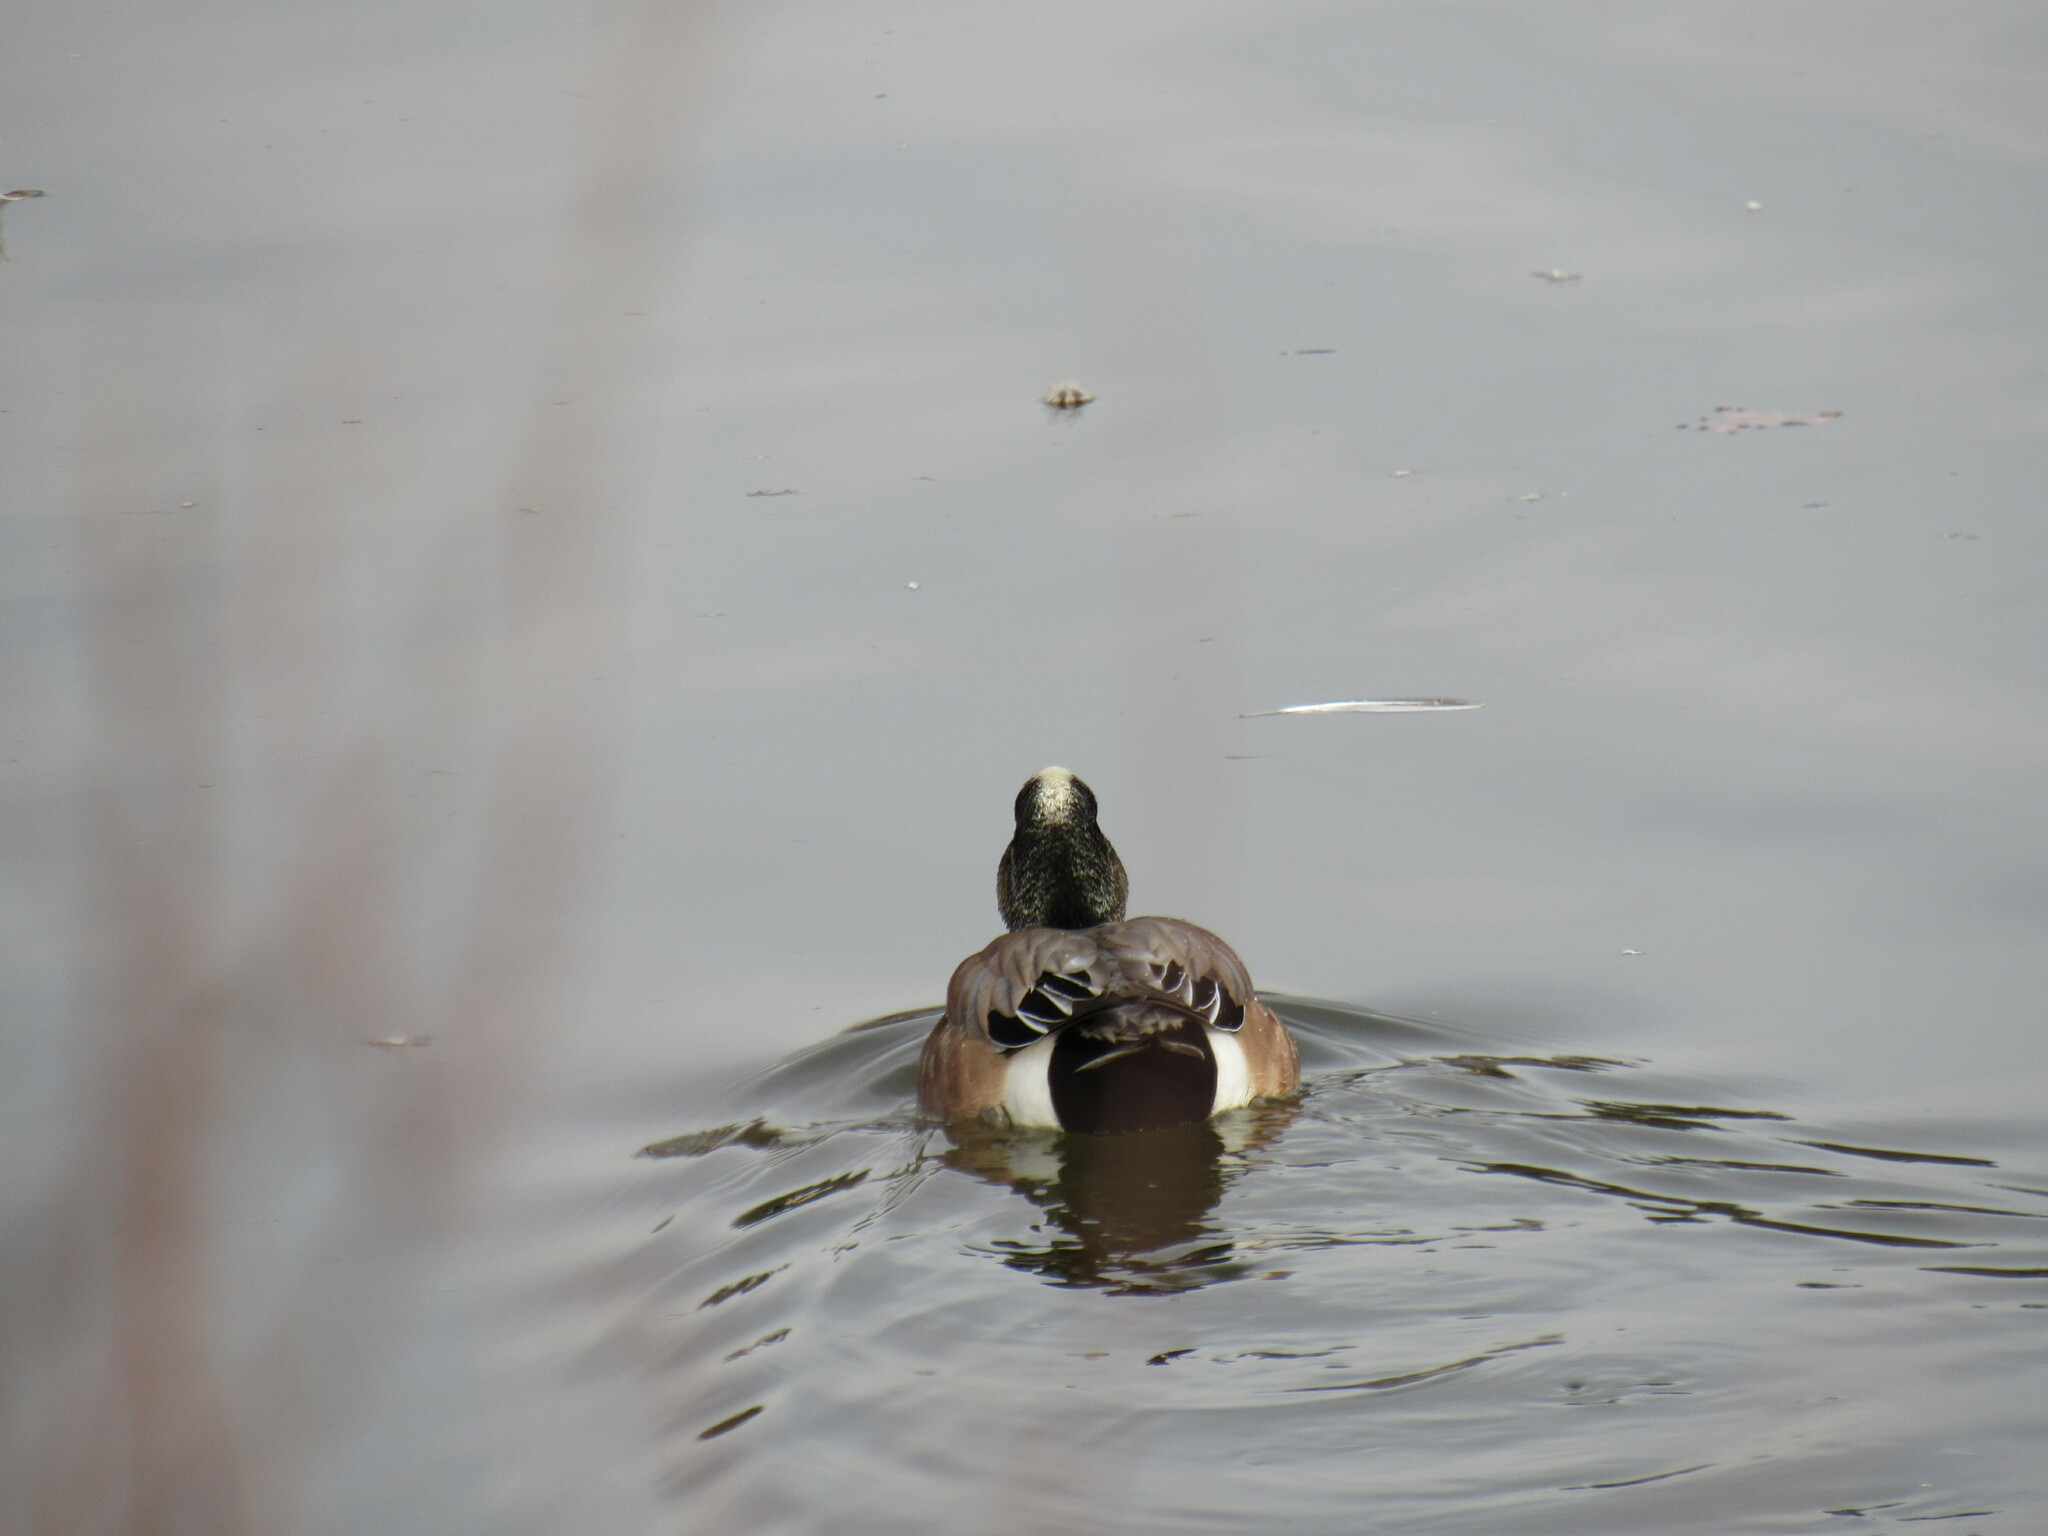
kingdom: Animalia
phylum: Chordata
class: Aves
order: Anseriformes
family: Anatidae
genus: Mareca
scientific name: Mareca americana
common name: American wigeon
